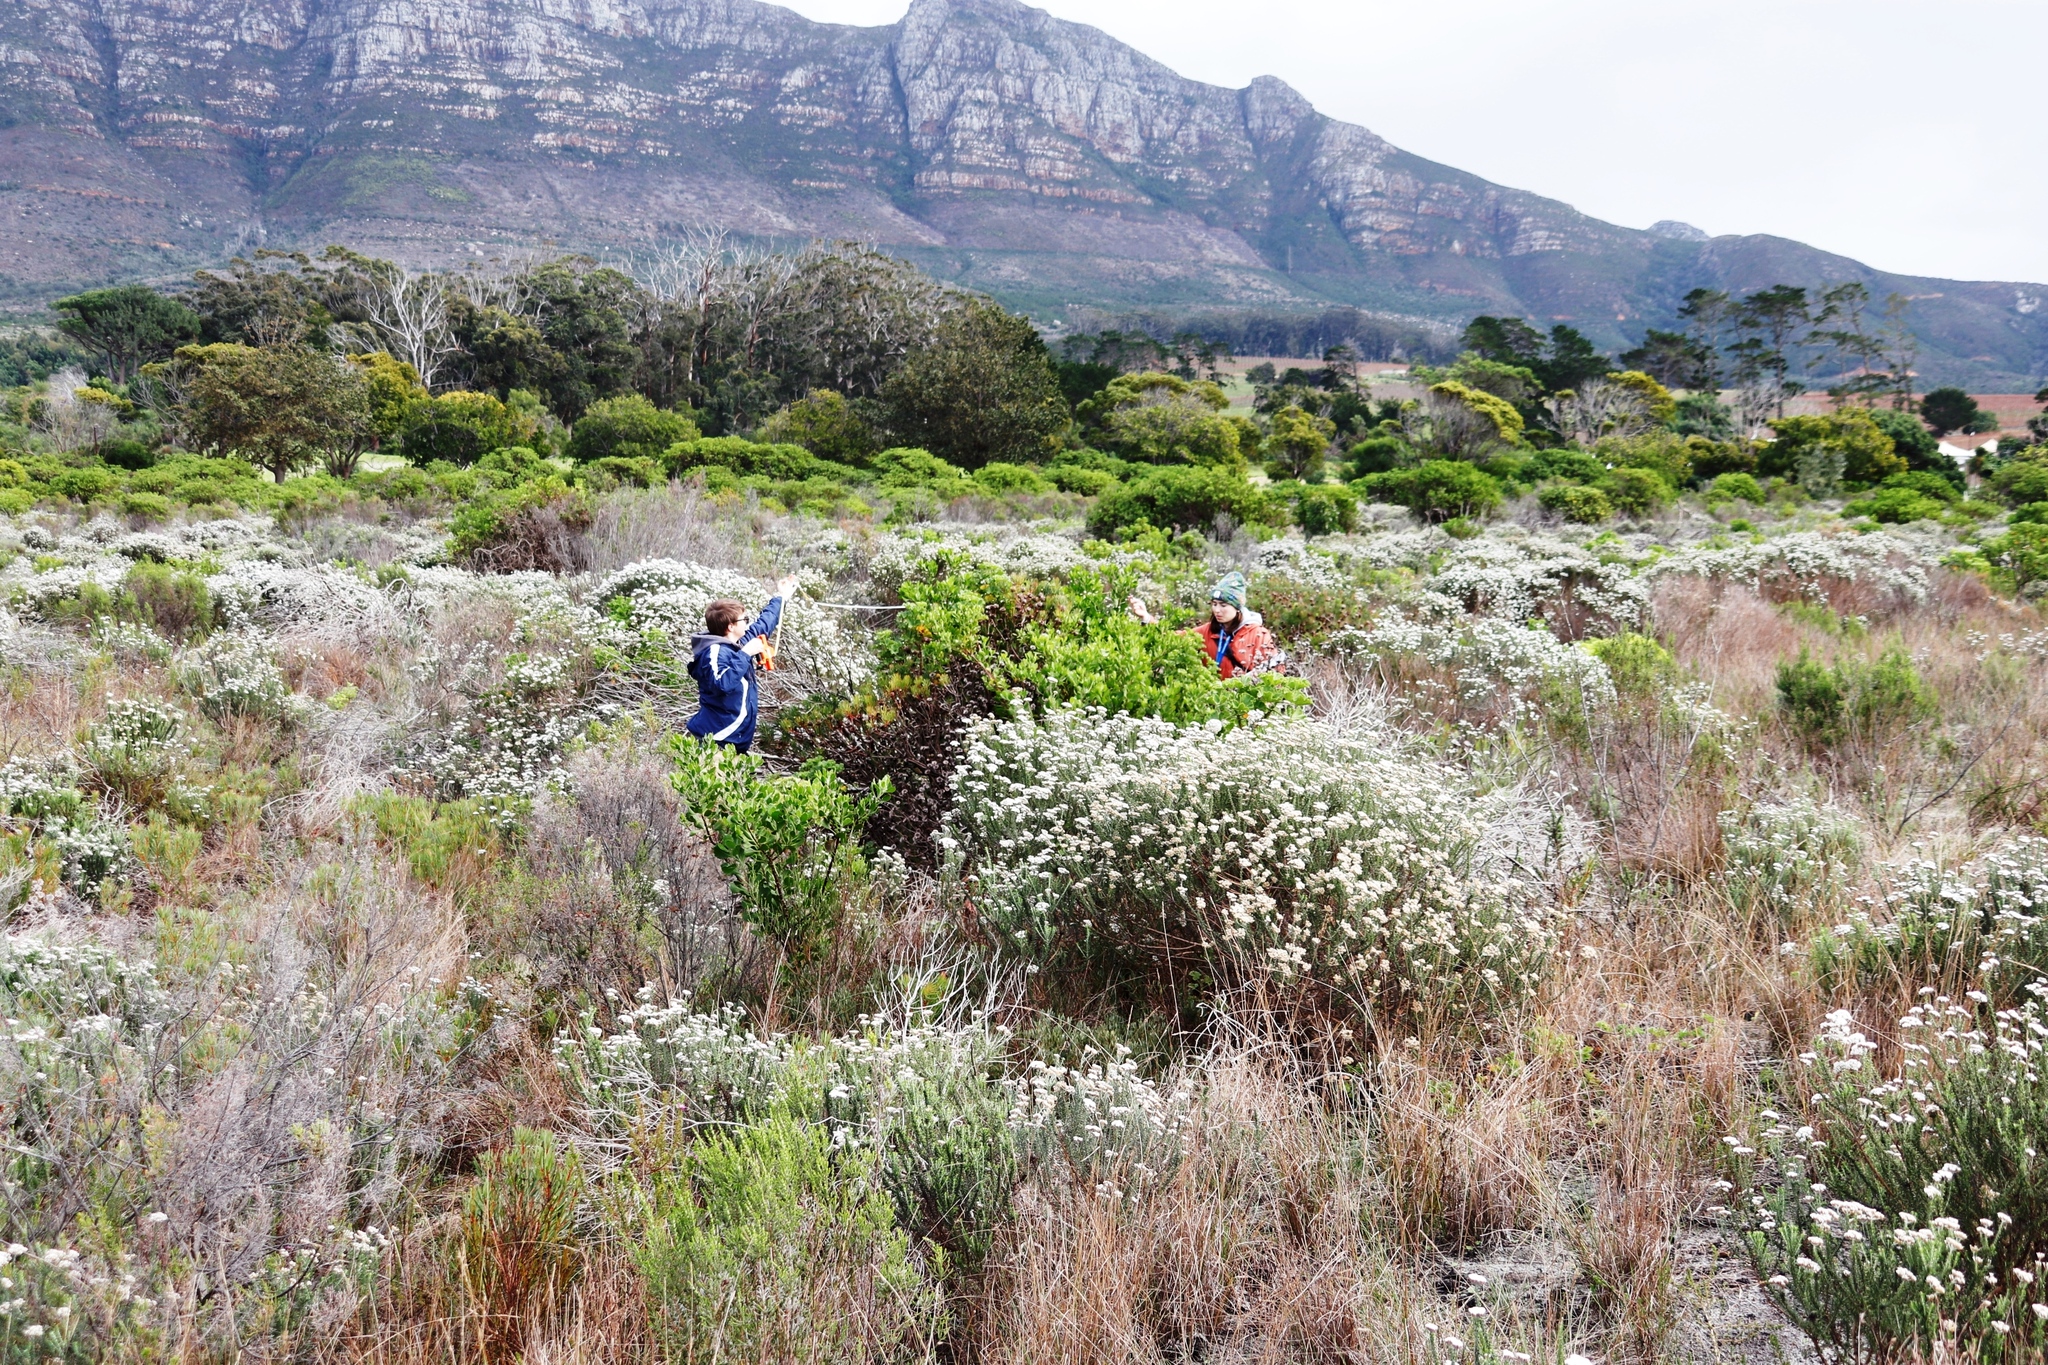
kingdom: Plantae
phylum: Tracheophyta
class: Magnoliopsida
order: Proteales
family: Proteaceae
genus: Protea
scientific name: Protea scolymocephala
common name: Thistle sugarbush
